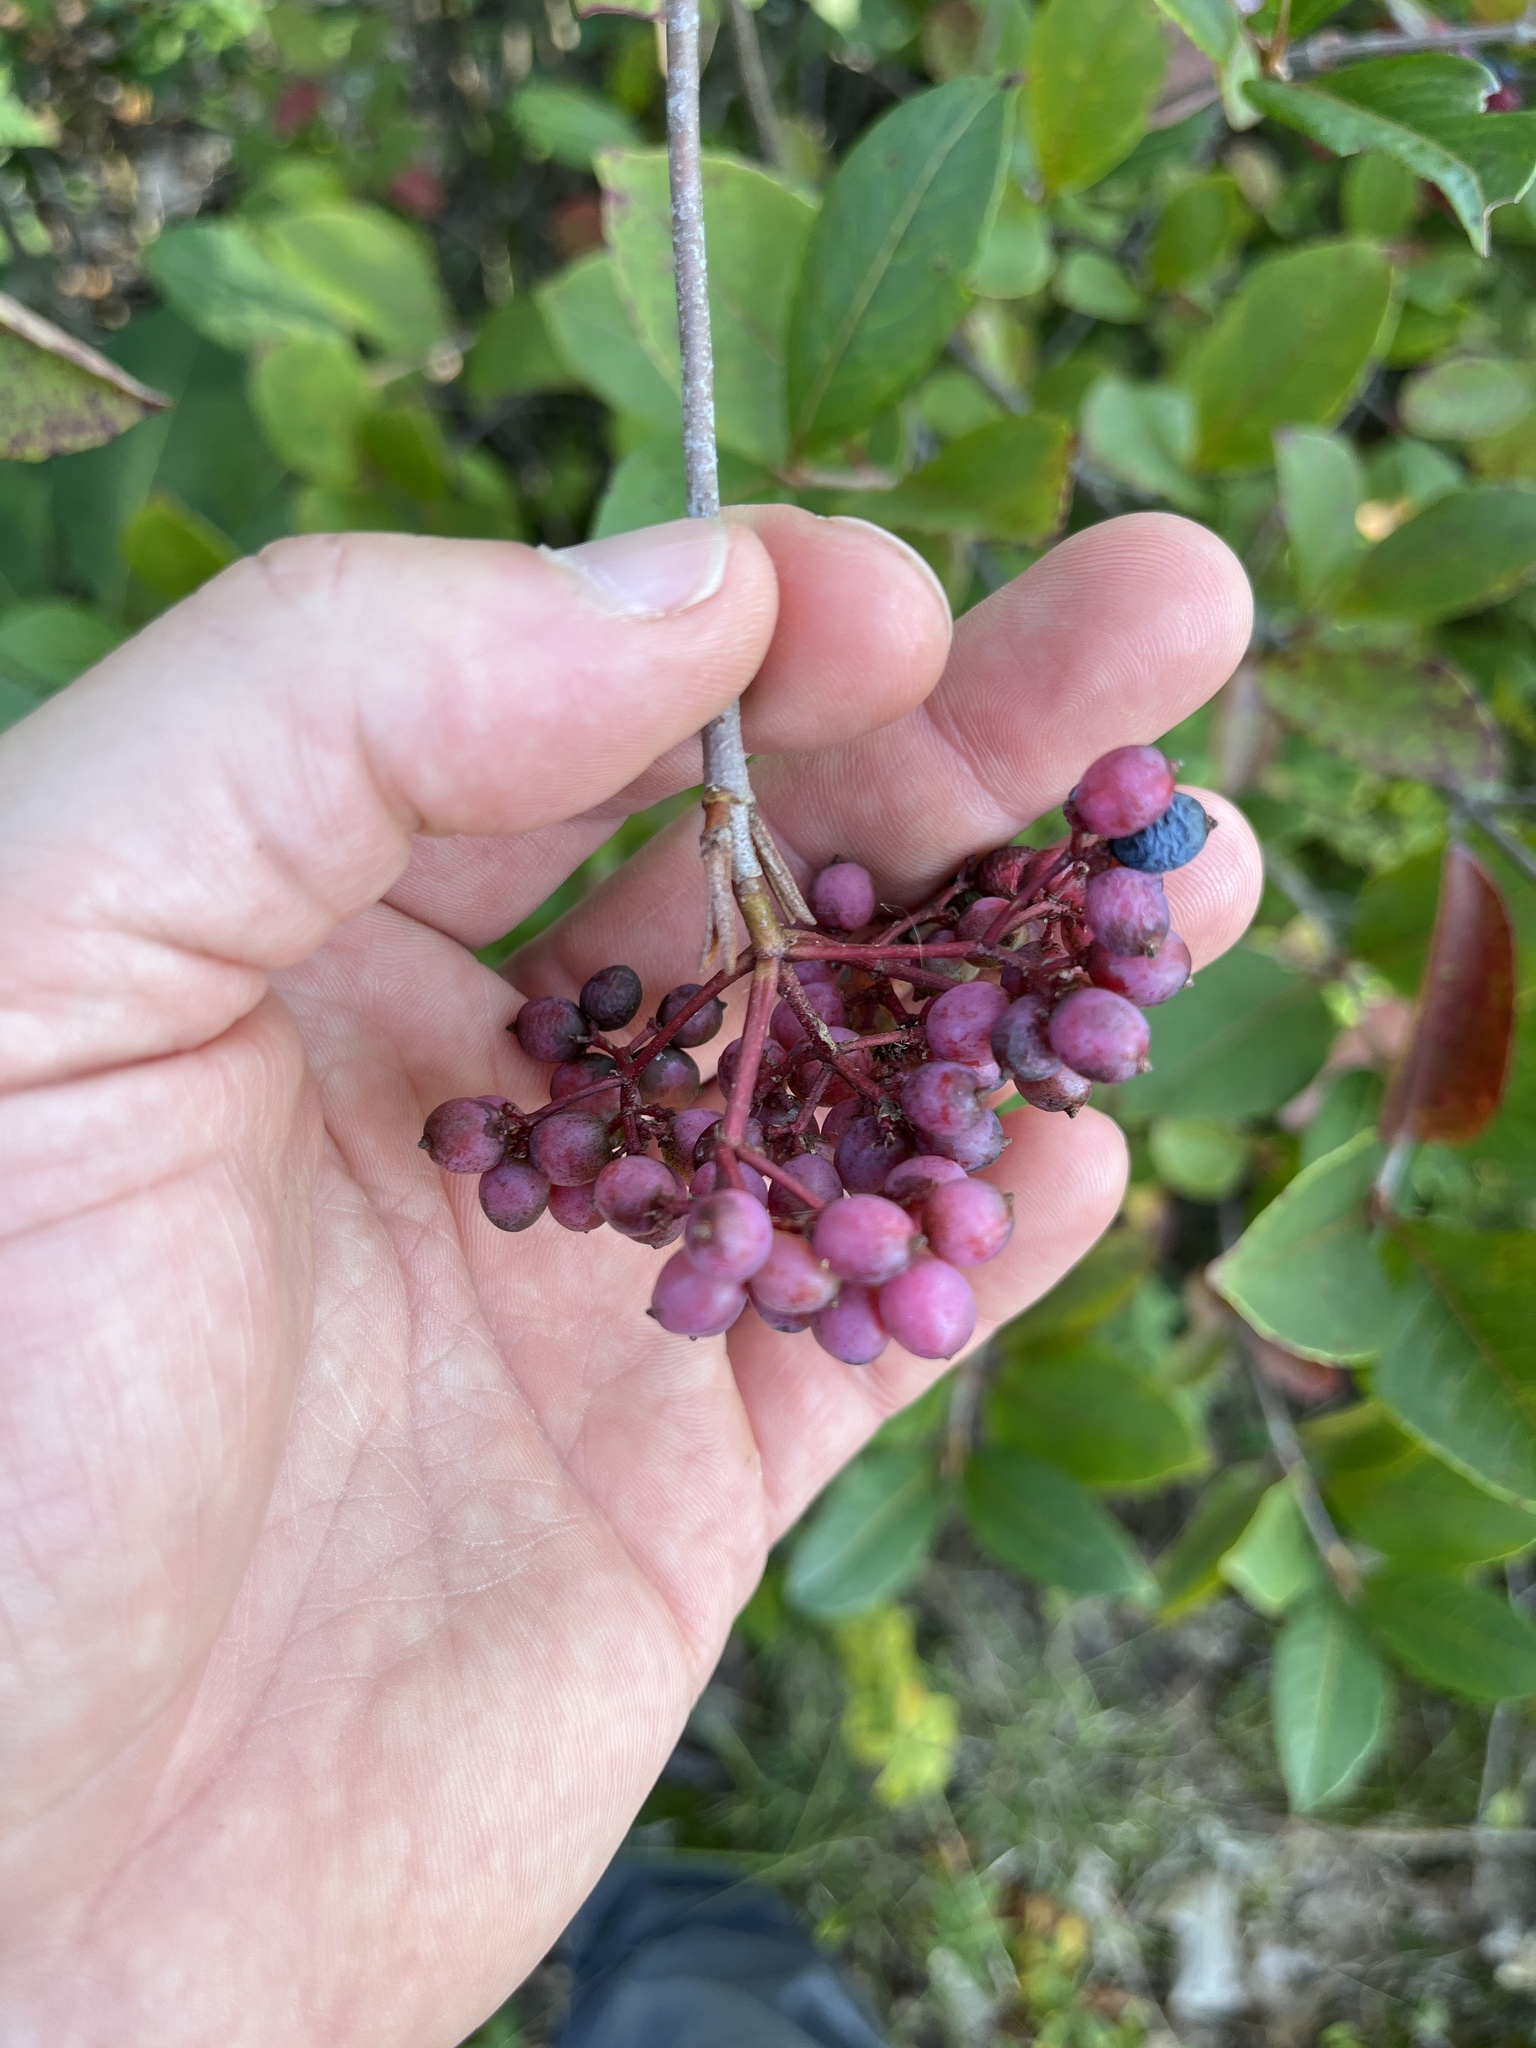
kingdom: Plantae
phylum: Tracheophyta
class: Magnoliopsida
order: Dipsacales
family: Viburnaceae
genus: Viburnum
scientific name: Viburnum cassinoides
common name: Swamp haw
